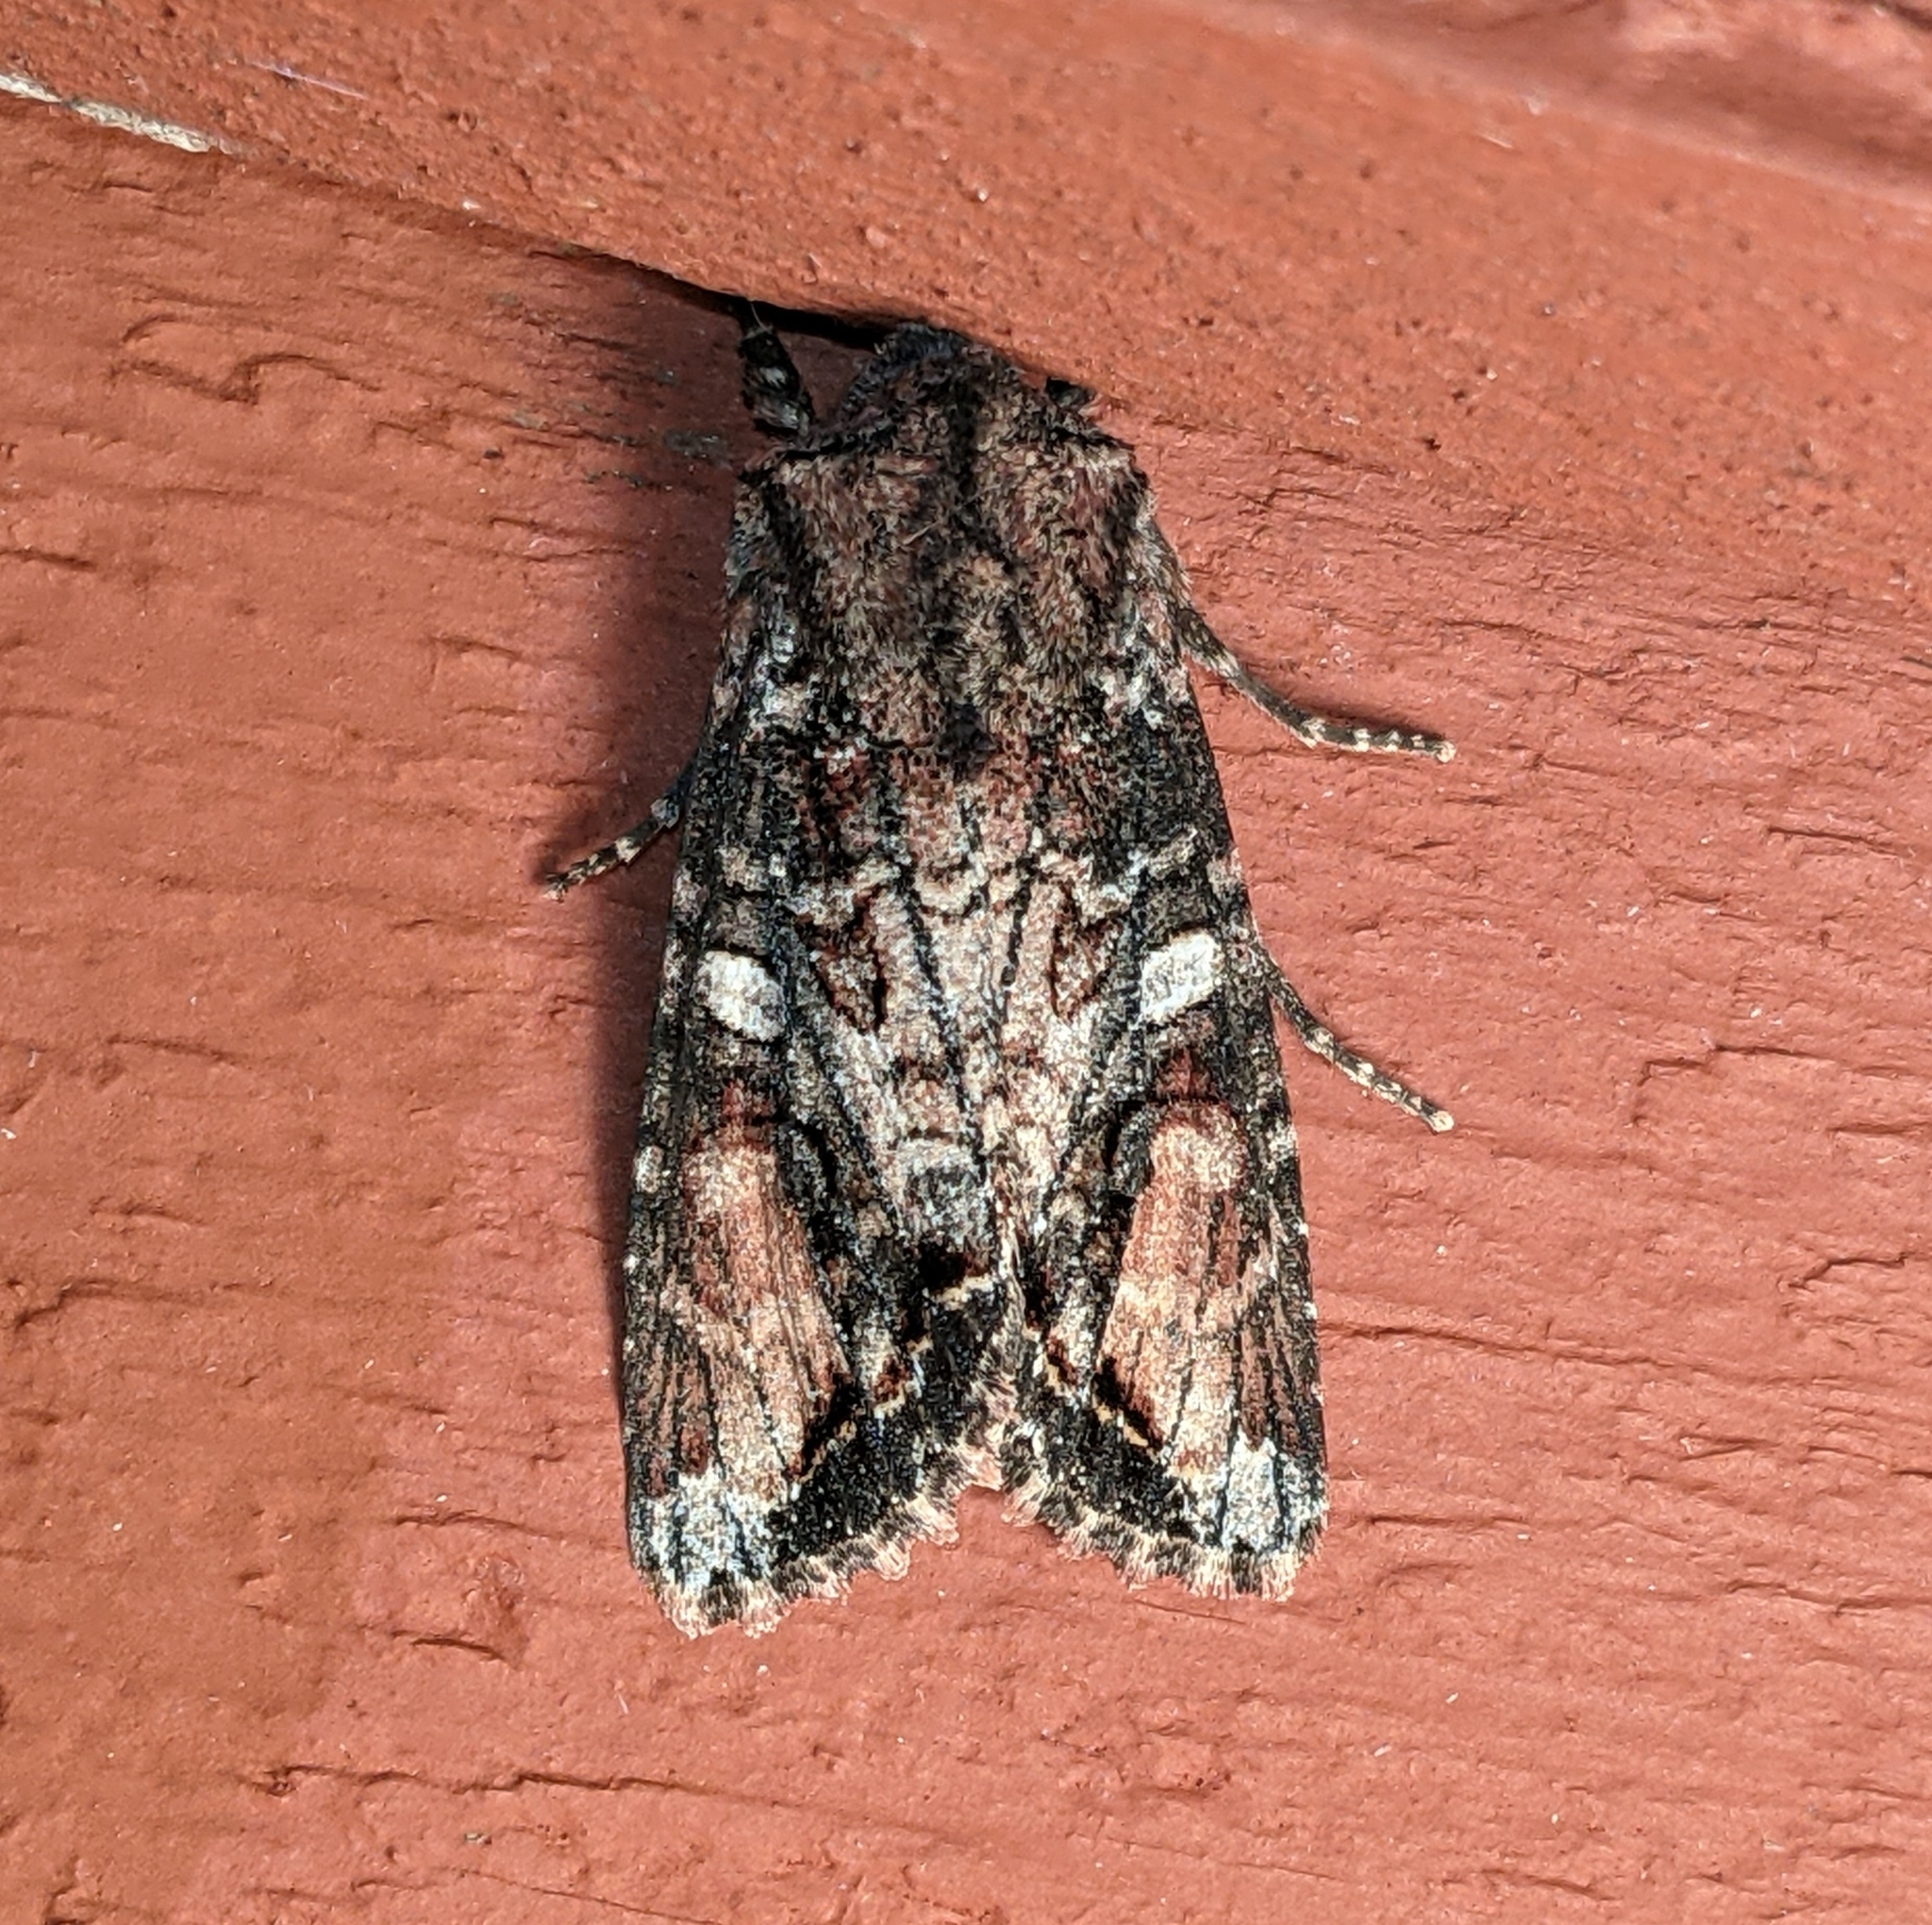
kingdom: Animalia
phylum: Arthropoda
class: Insecta
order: Lepidoptera
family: Noctuidae
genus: Egira
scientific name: Egira perlubens
